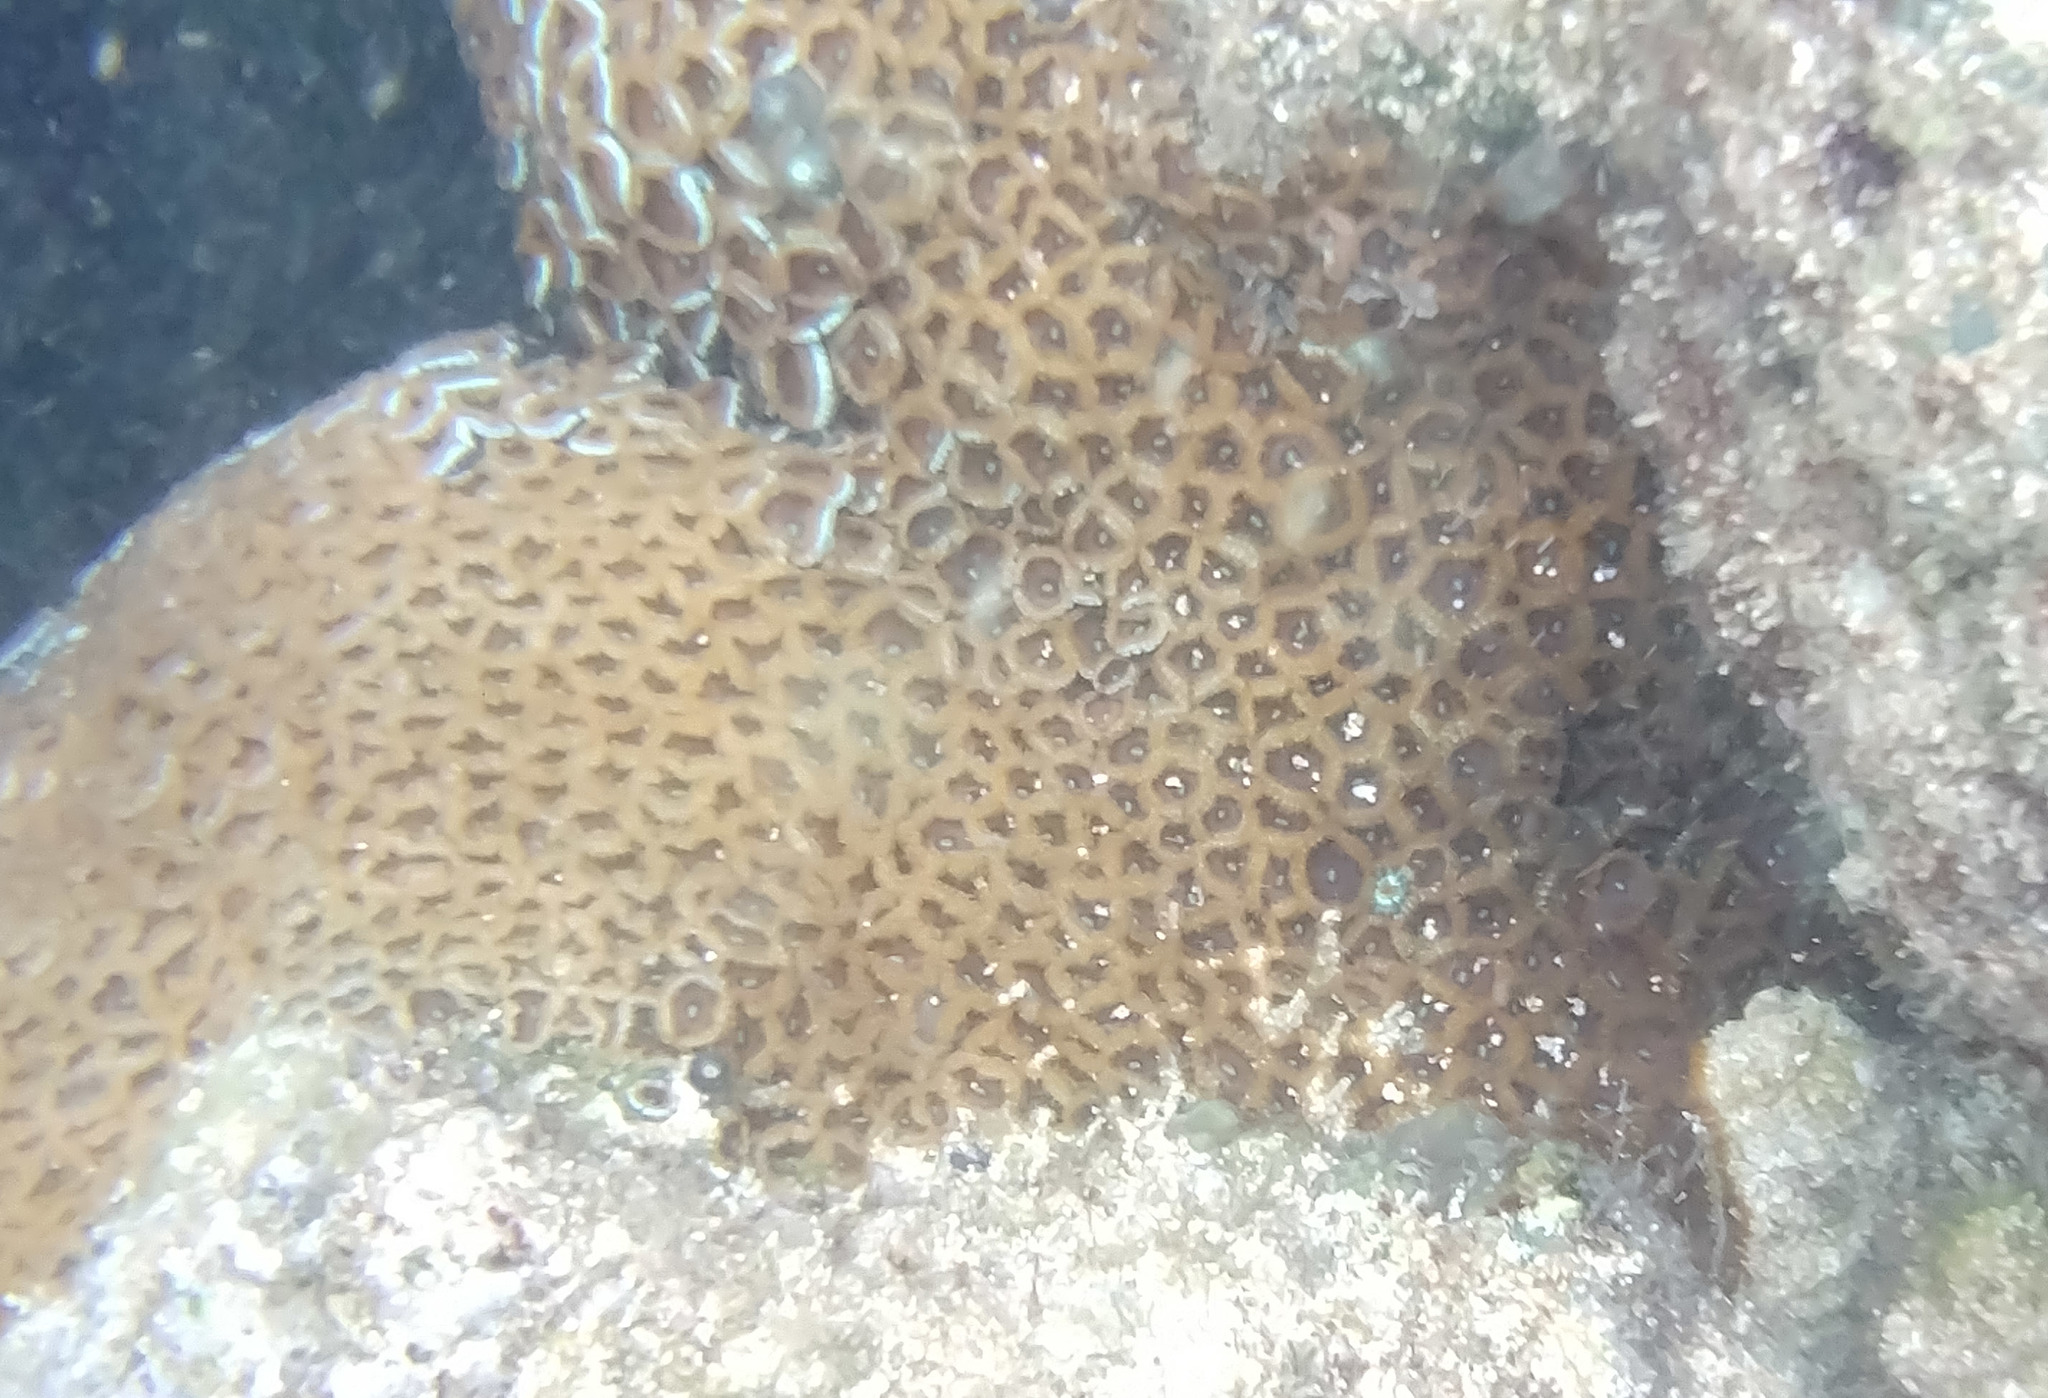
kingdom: Animalia
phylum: Cnidaria
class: Anthozoa
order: Zoantharia
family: Zoanthidae
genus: Zoanthus
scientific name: Zoanthus gigantus
